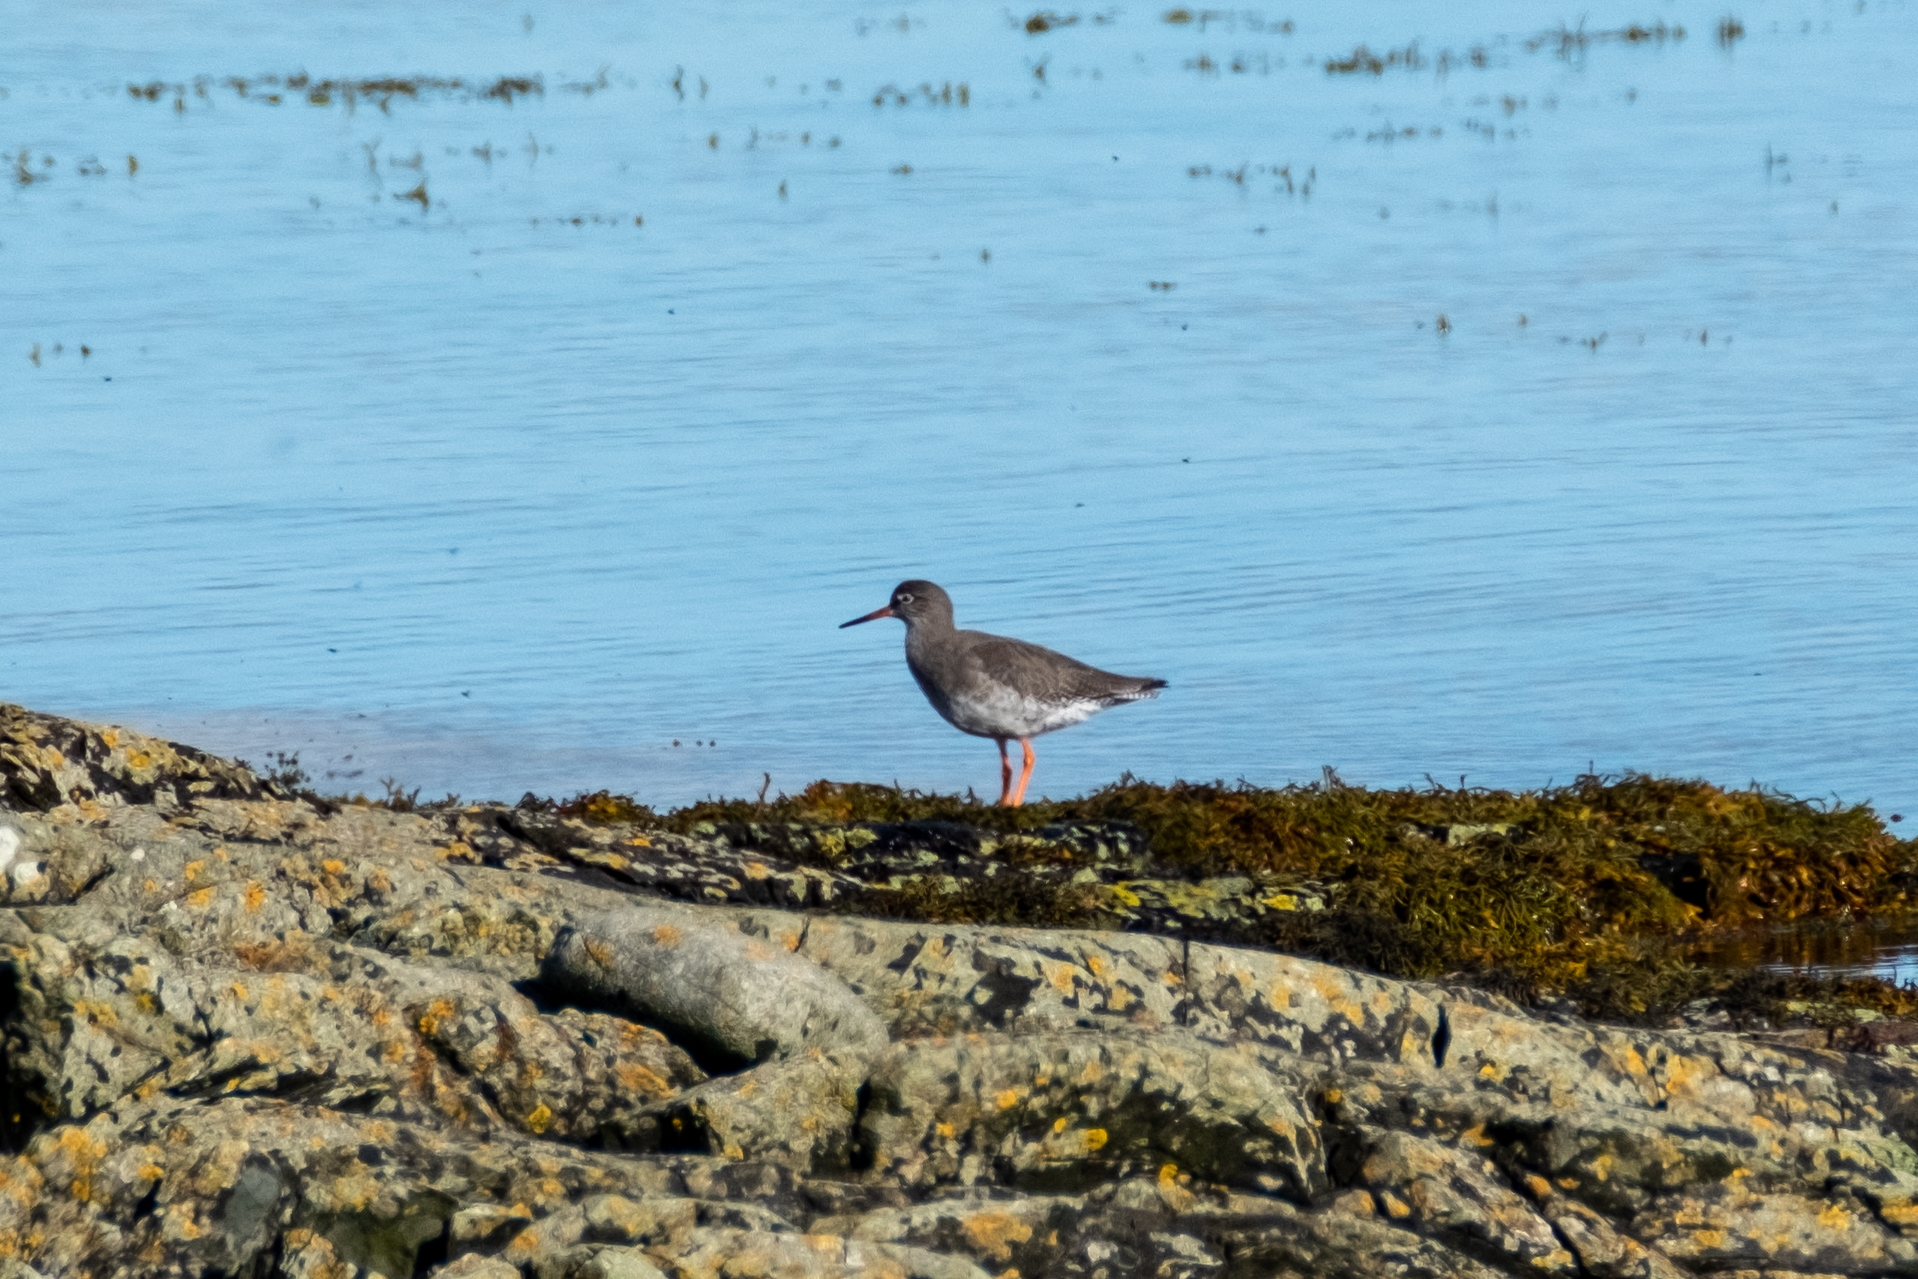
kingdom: Animalia
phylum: Chordata
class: Aves
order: Charadriiformes
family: Scolopacidae
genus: Tringa
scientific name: Tringa totanus
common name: Common redshank
